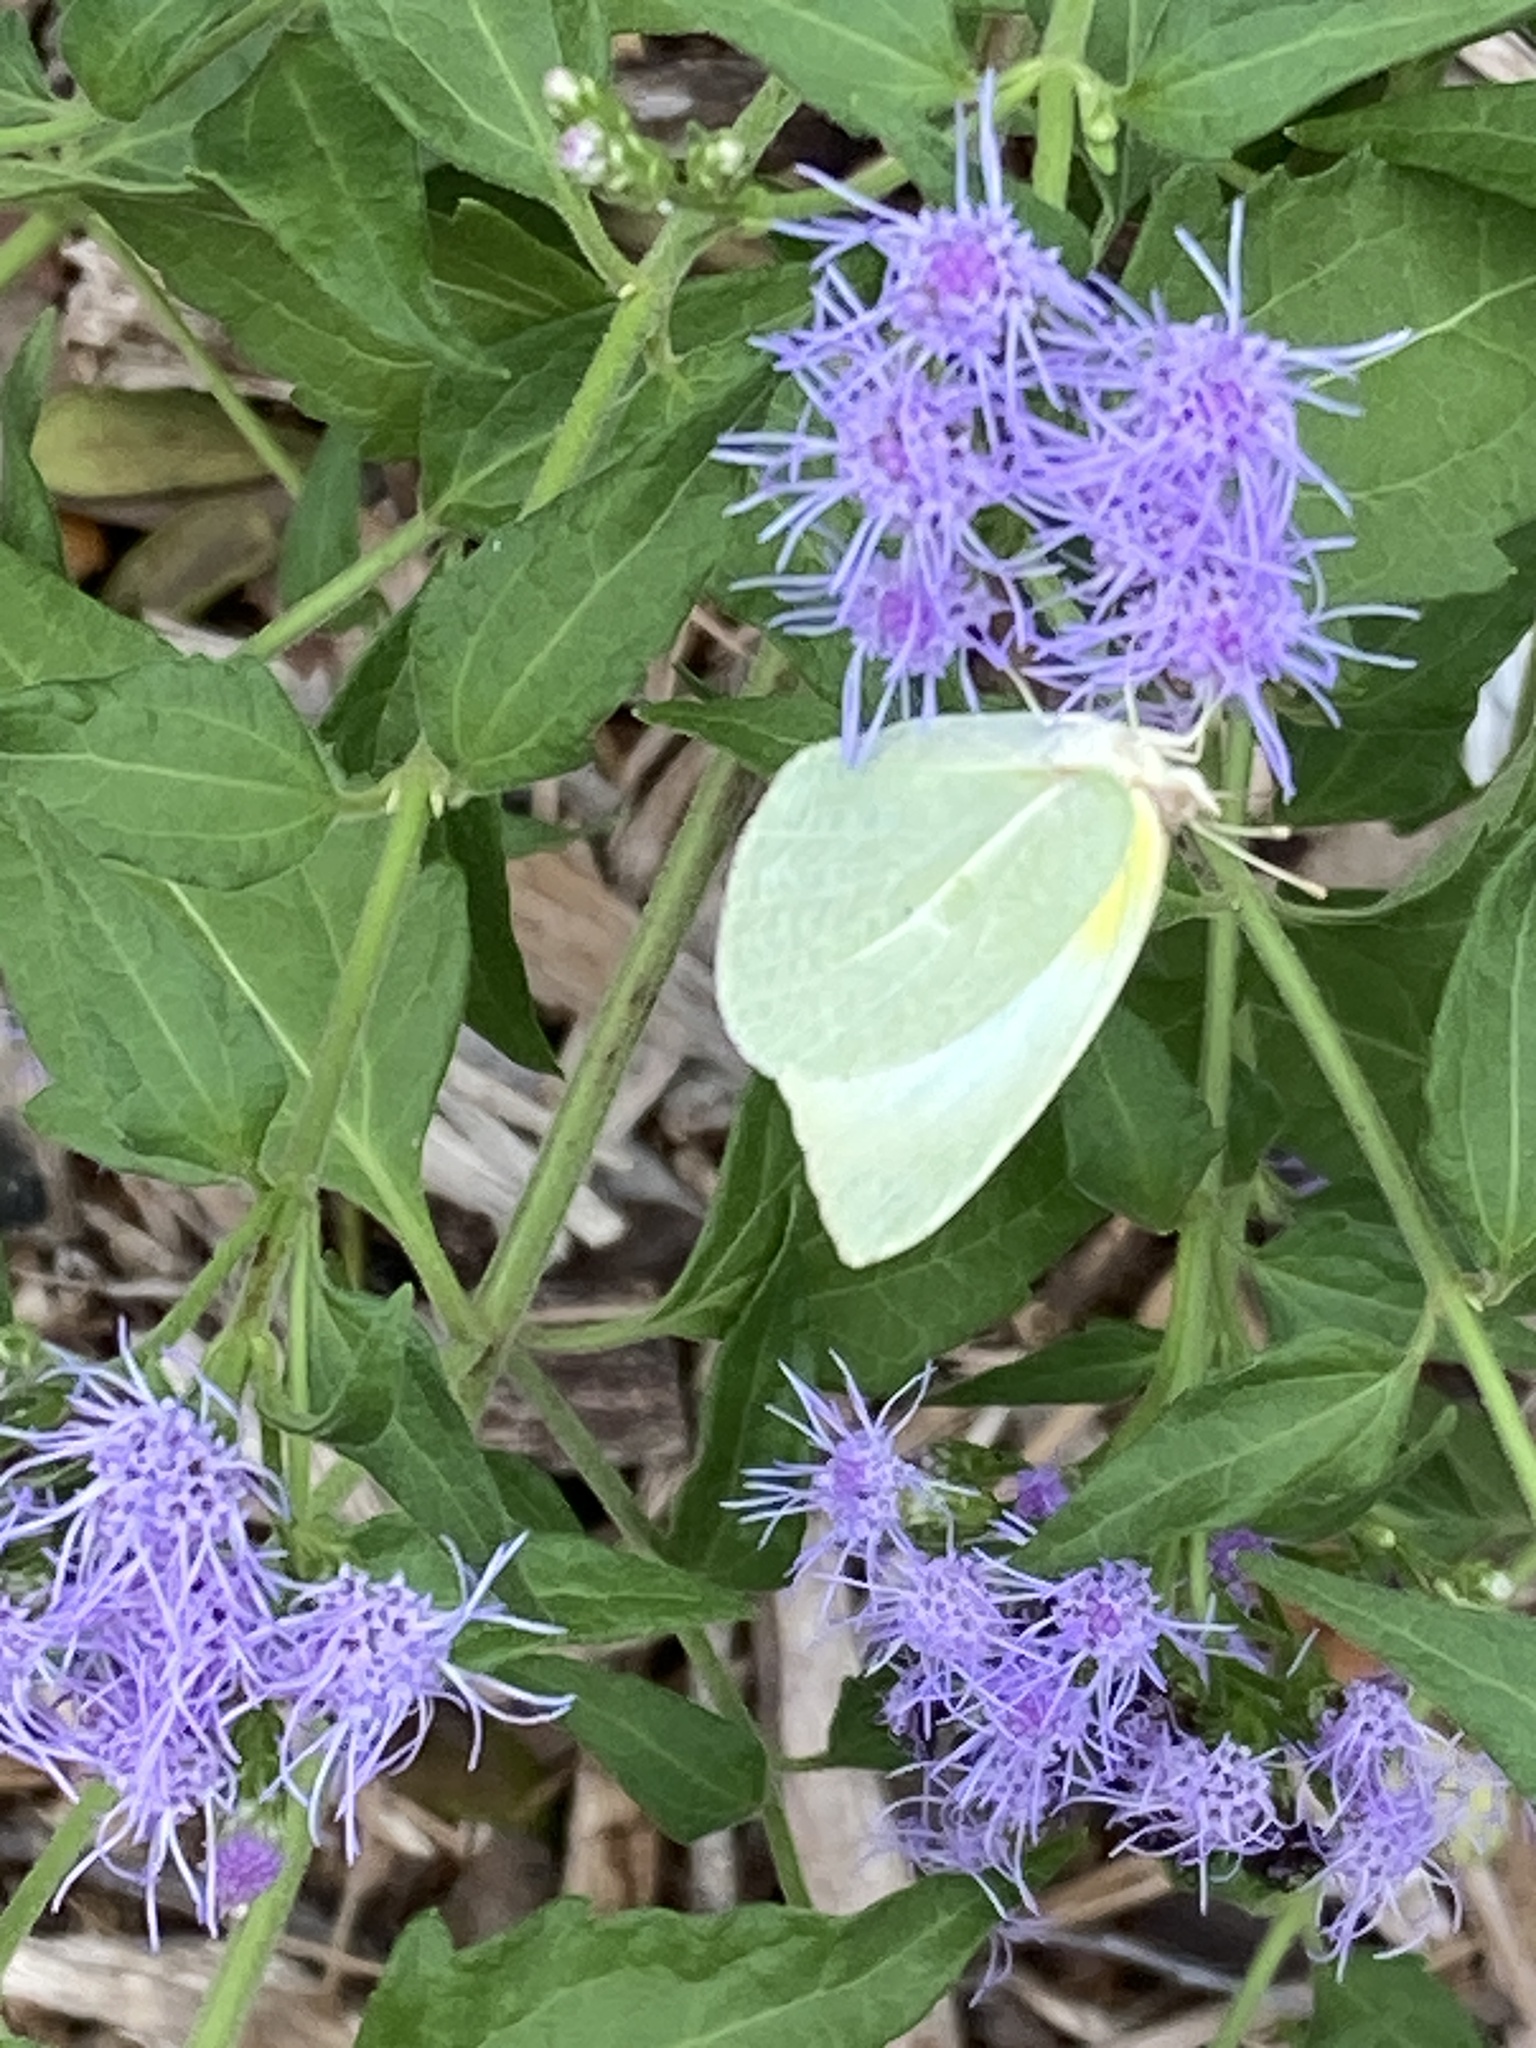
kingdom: Animalia
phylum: Arthropoda
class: Insecta
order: Lepidoptera
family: Pieridae
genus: Kricogonia
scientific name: Kricogonia lyside
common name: Guayacan sulphur,
